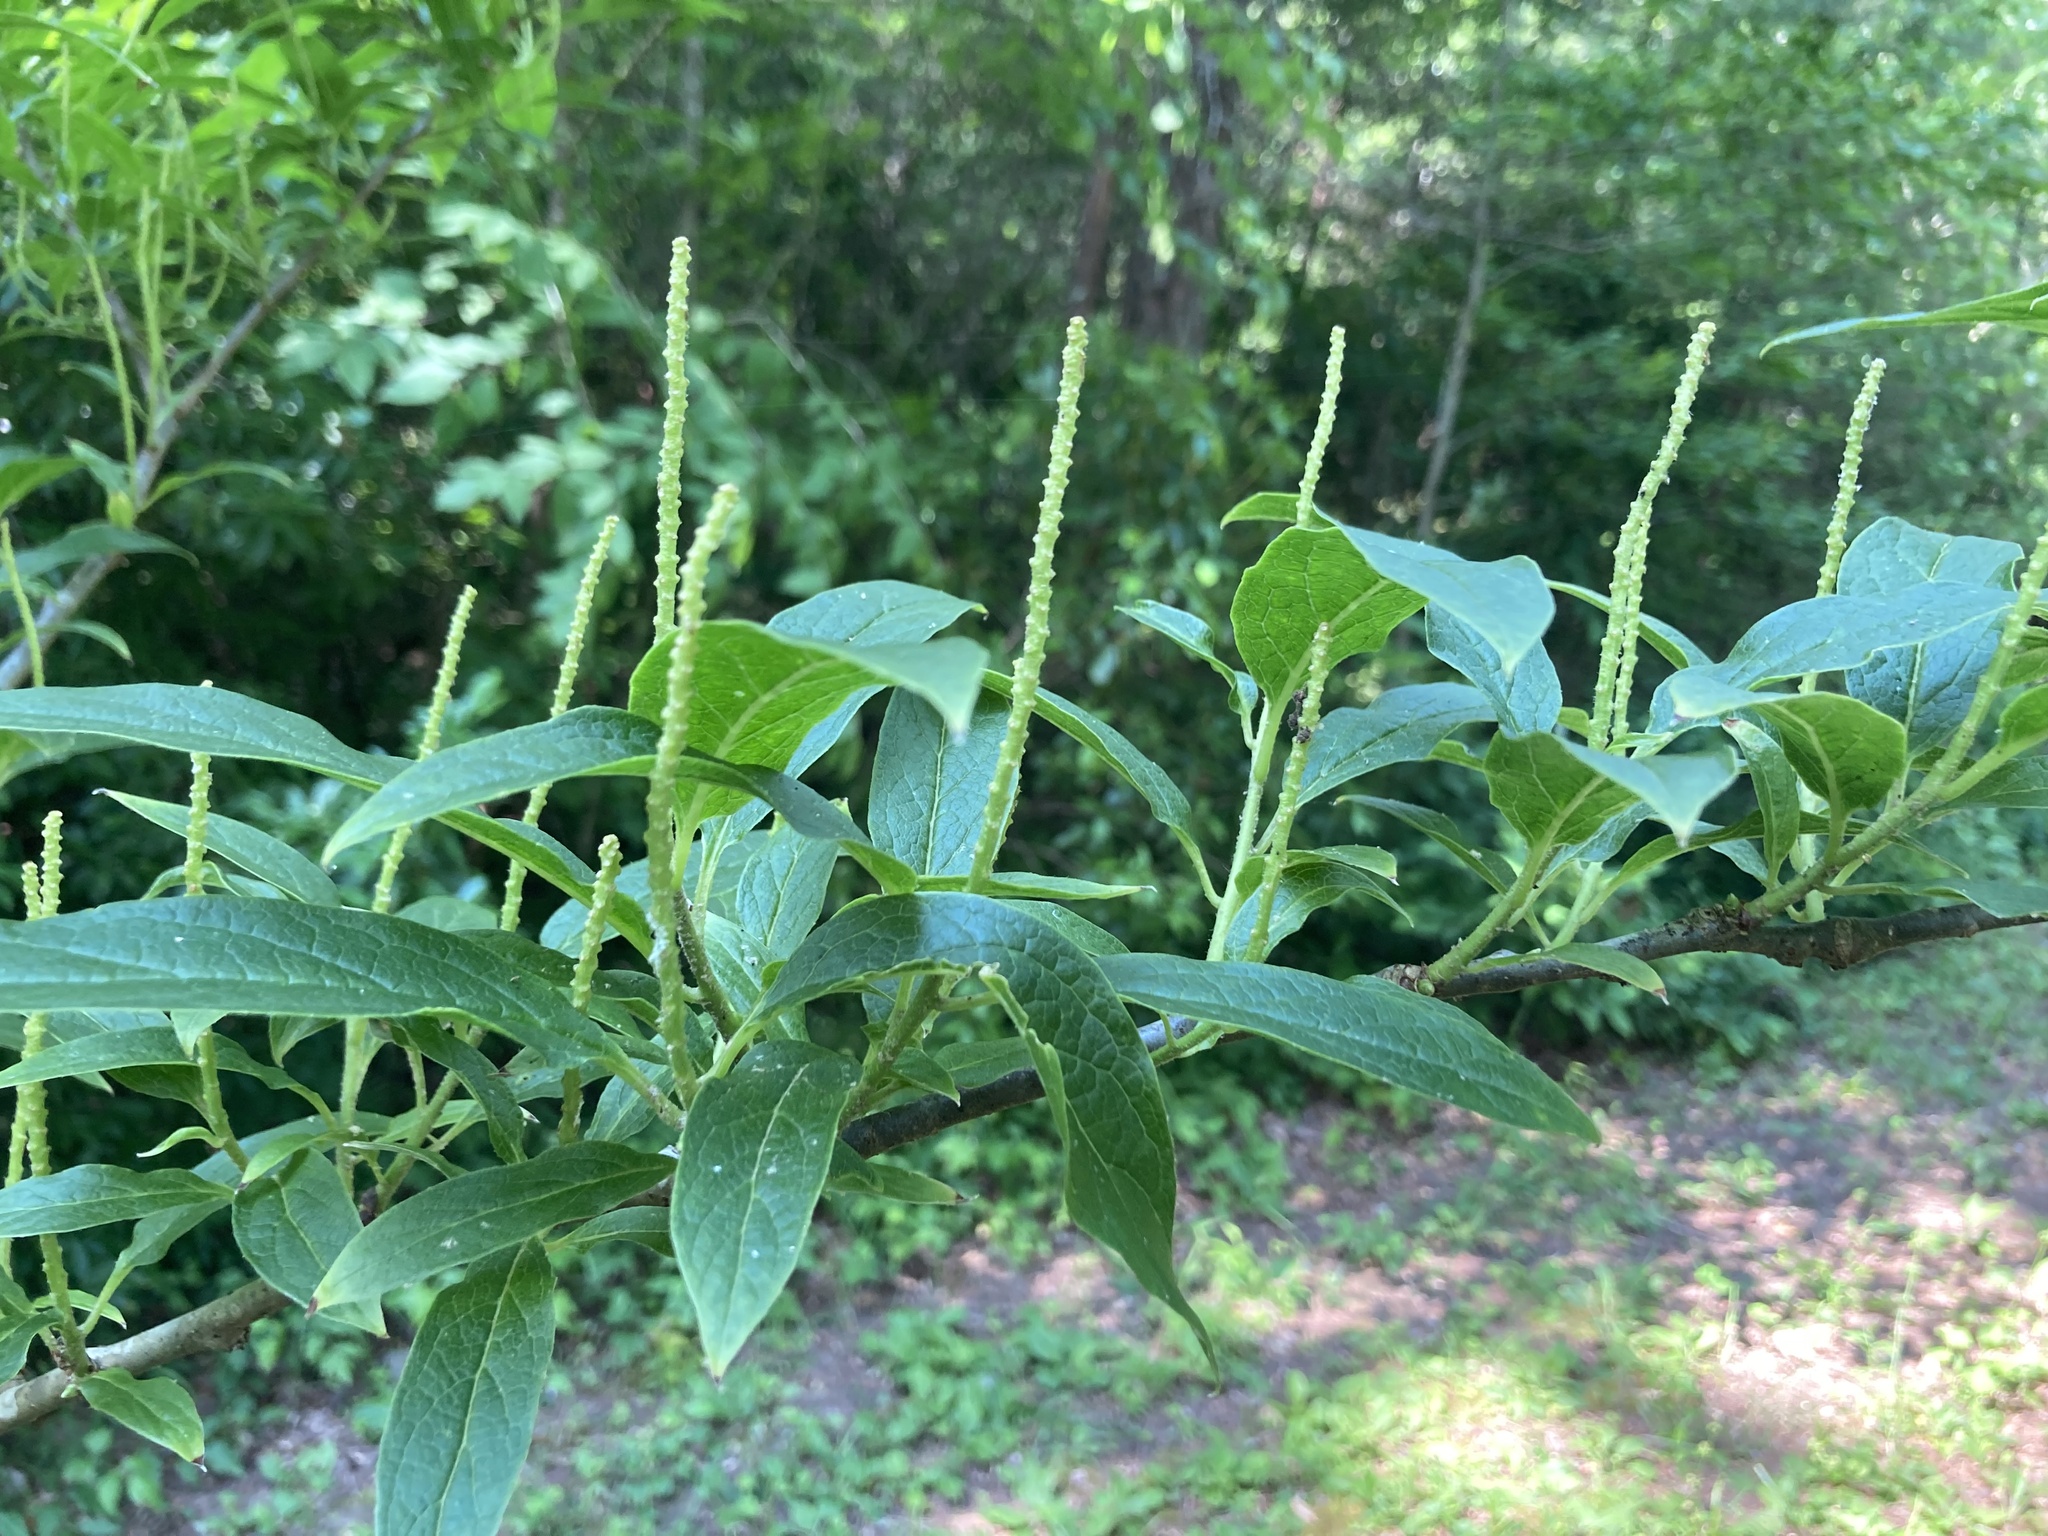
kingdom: Plantae
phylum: Tracheophyta
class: Magnoliopsida
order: Santalales
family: Cervantesiaceae
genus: Pyrularia
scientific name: Pyrularia pubera
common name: Oilnut
